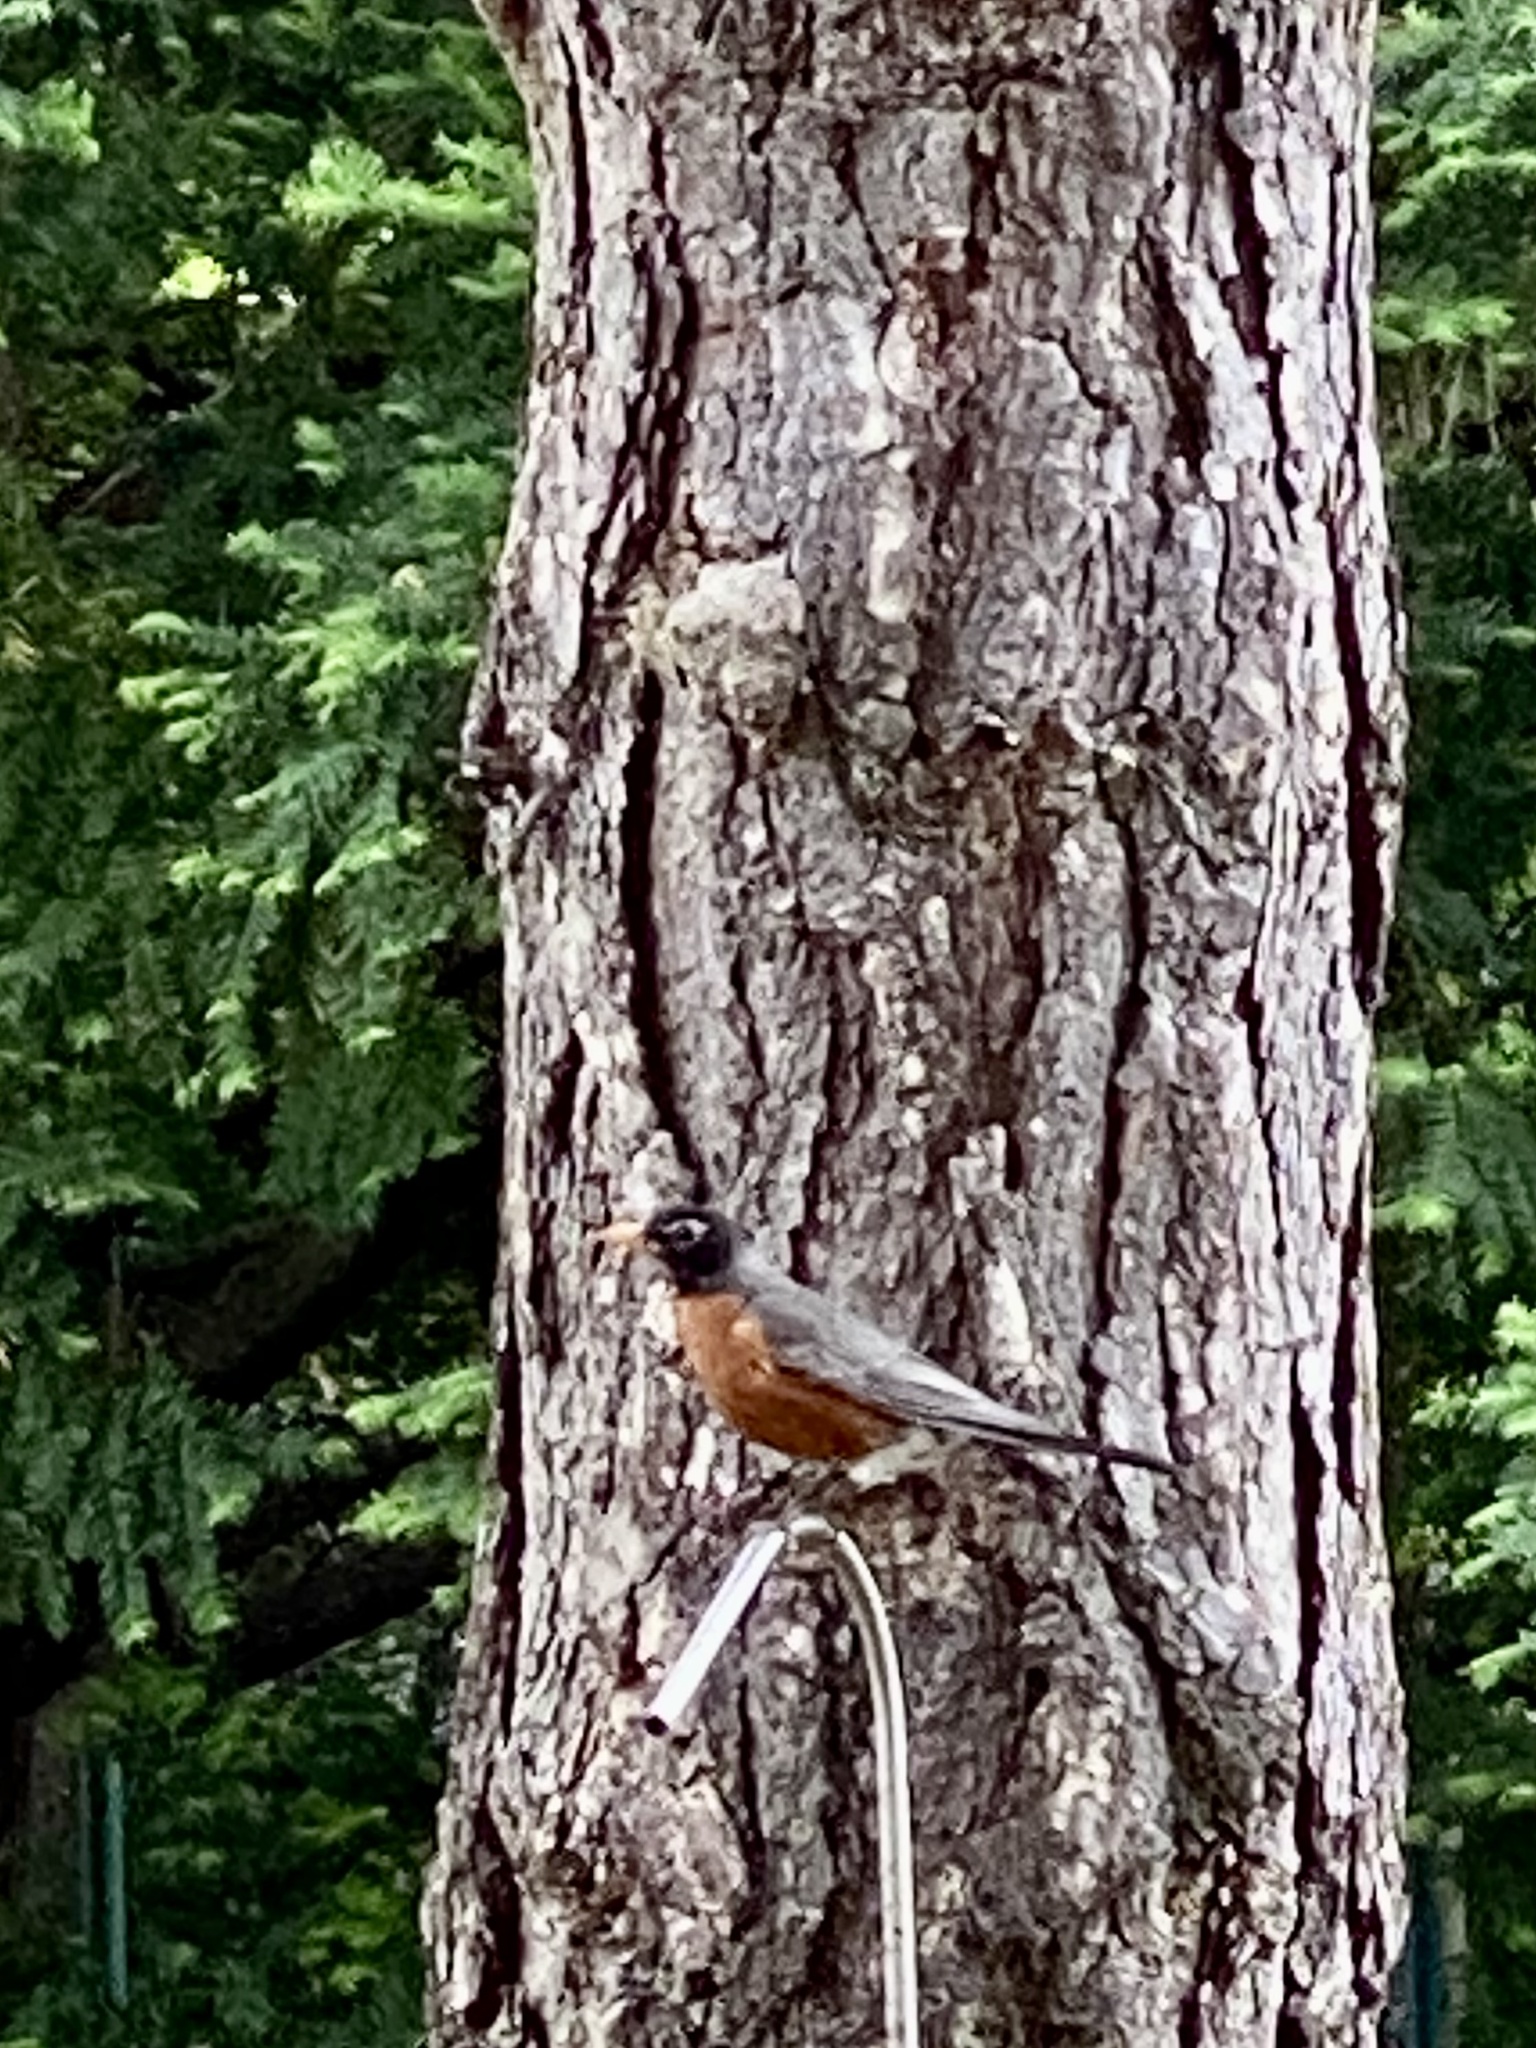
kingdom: Animalia
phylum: Chordata
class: Aves
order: Passeriformes
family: Turdidae
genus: Turdus
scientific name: Turdus migratorius
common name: American robin
